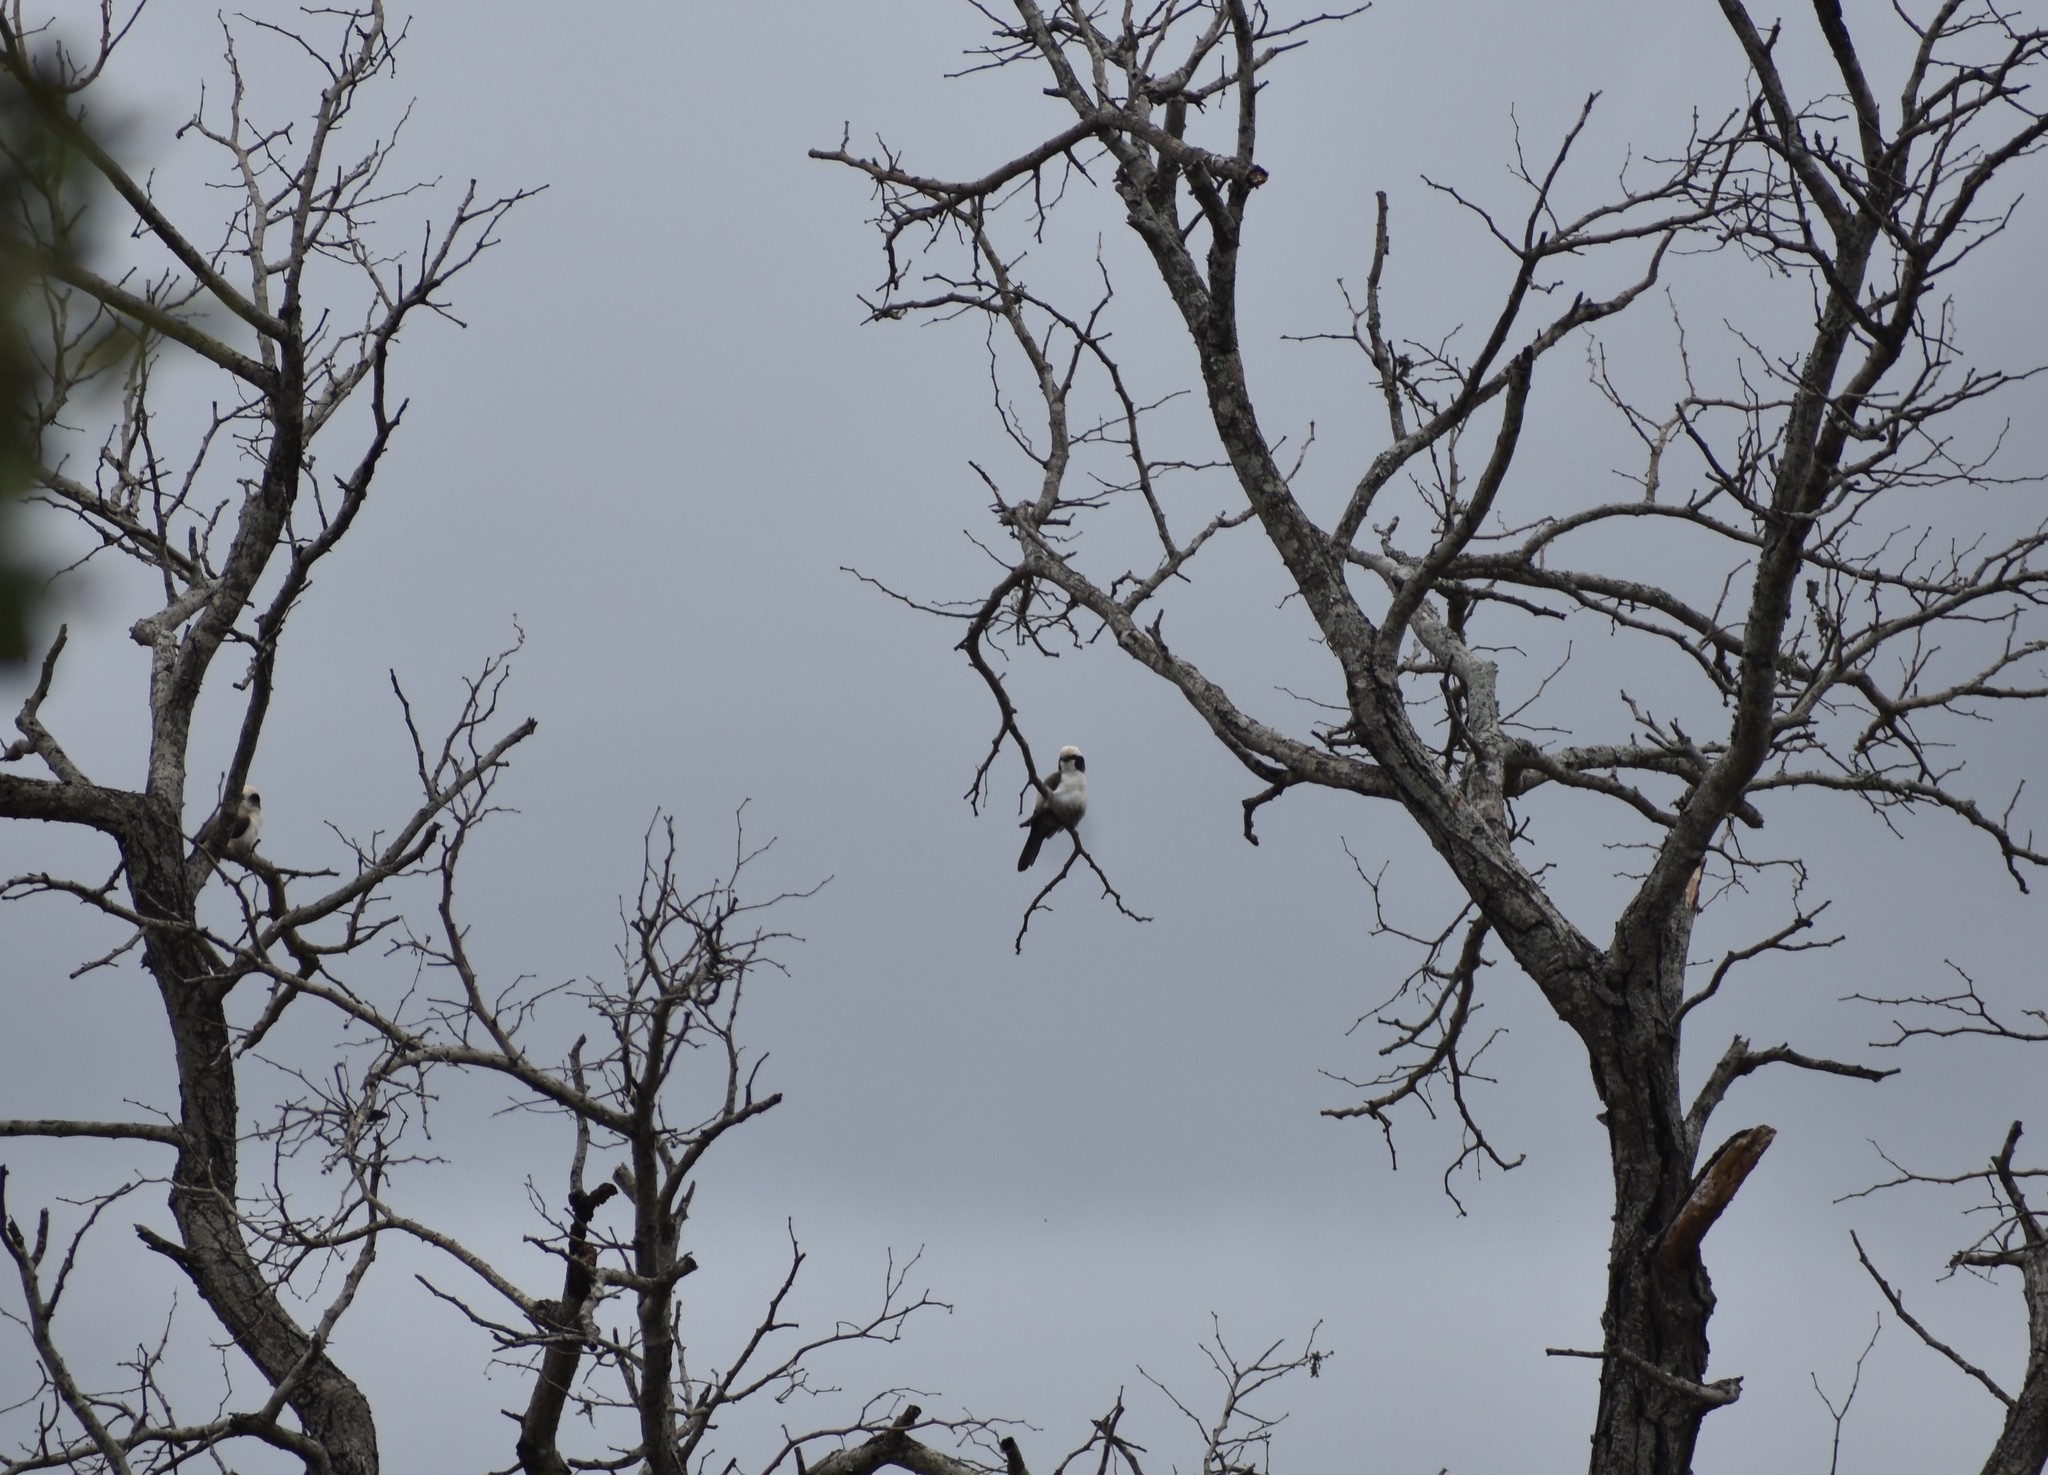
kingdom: Animalia
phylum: Chordata
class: Aves
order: Passeriformes
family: Laniidae
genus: Eurocephalus
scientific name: Eurocephalus anguitimens
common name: Southern white-crowned shrike
